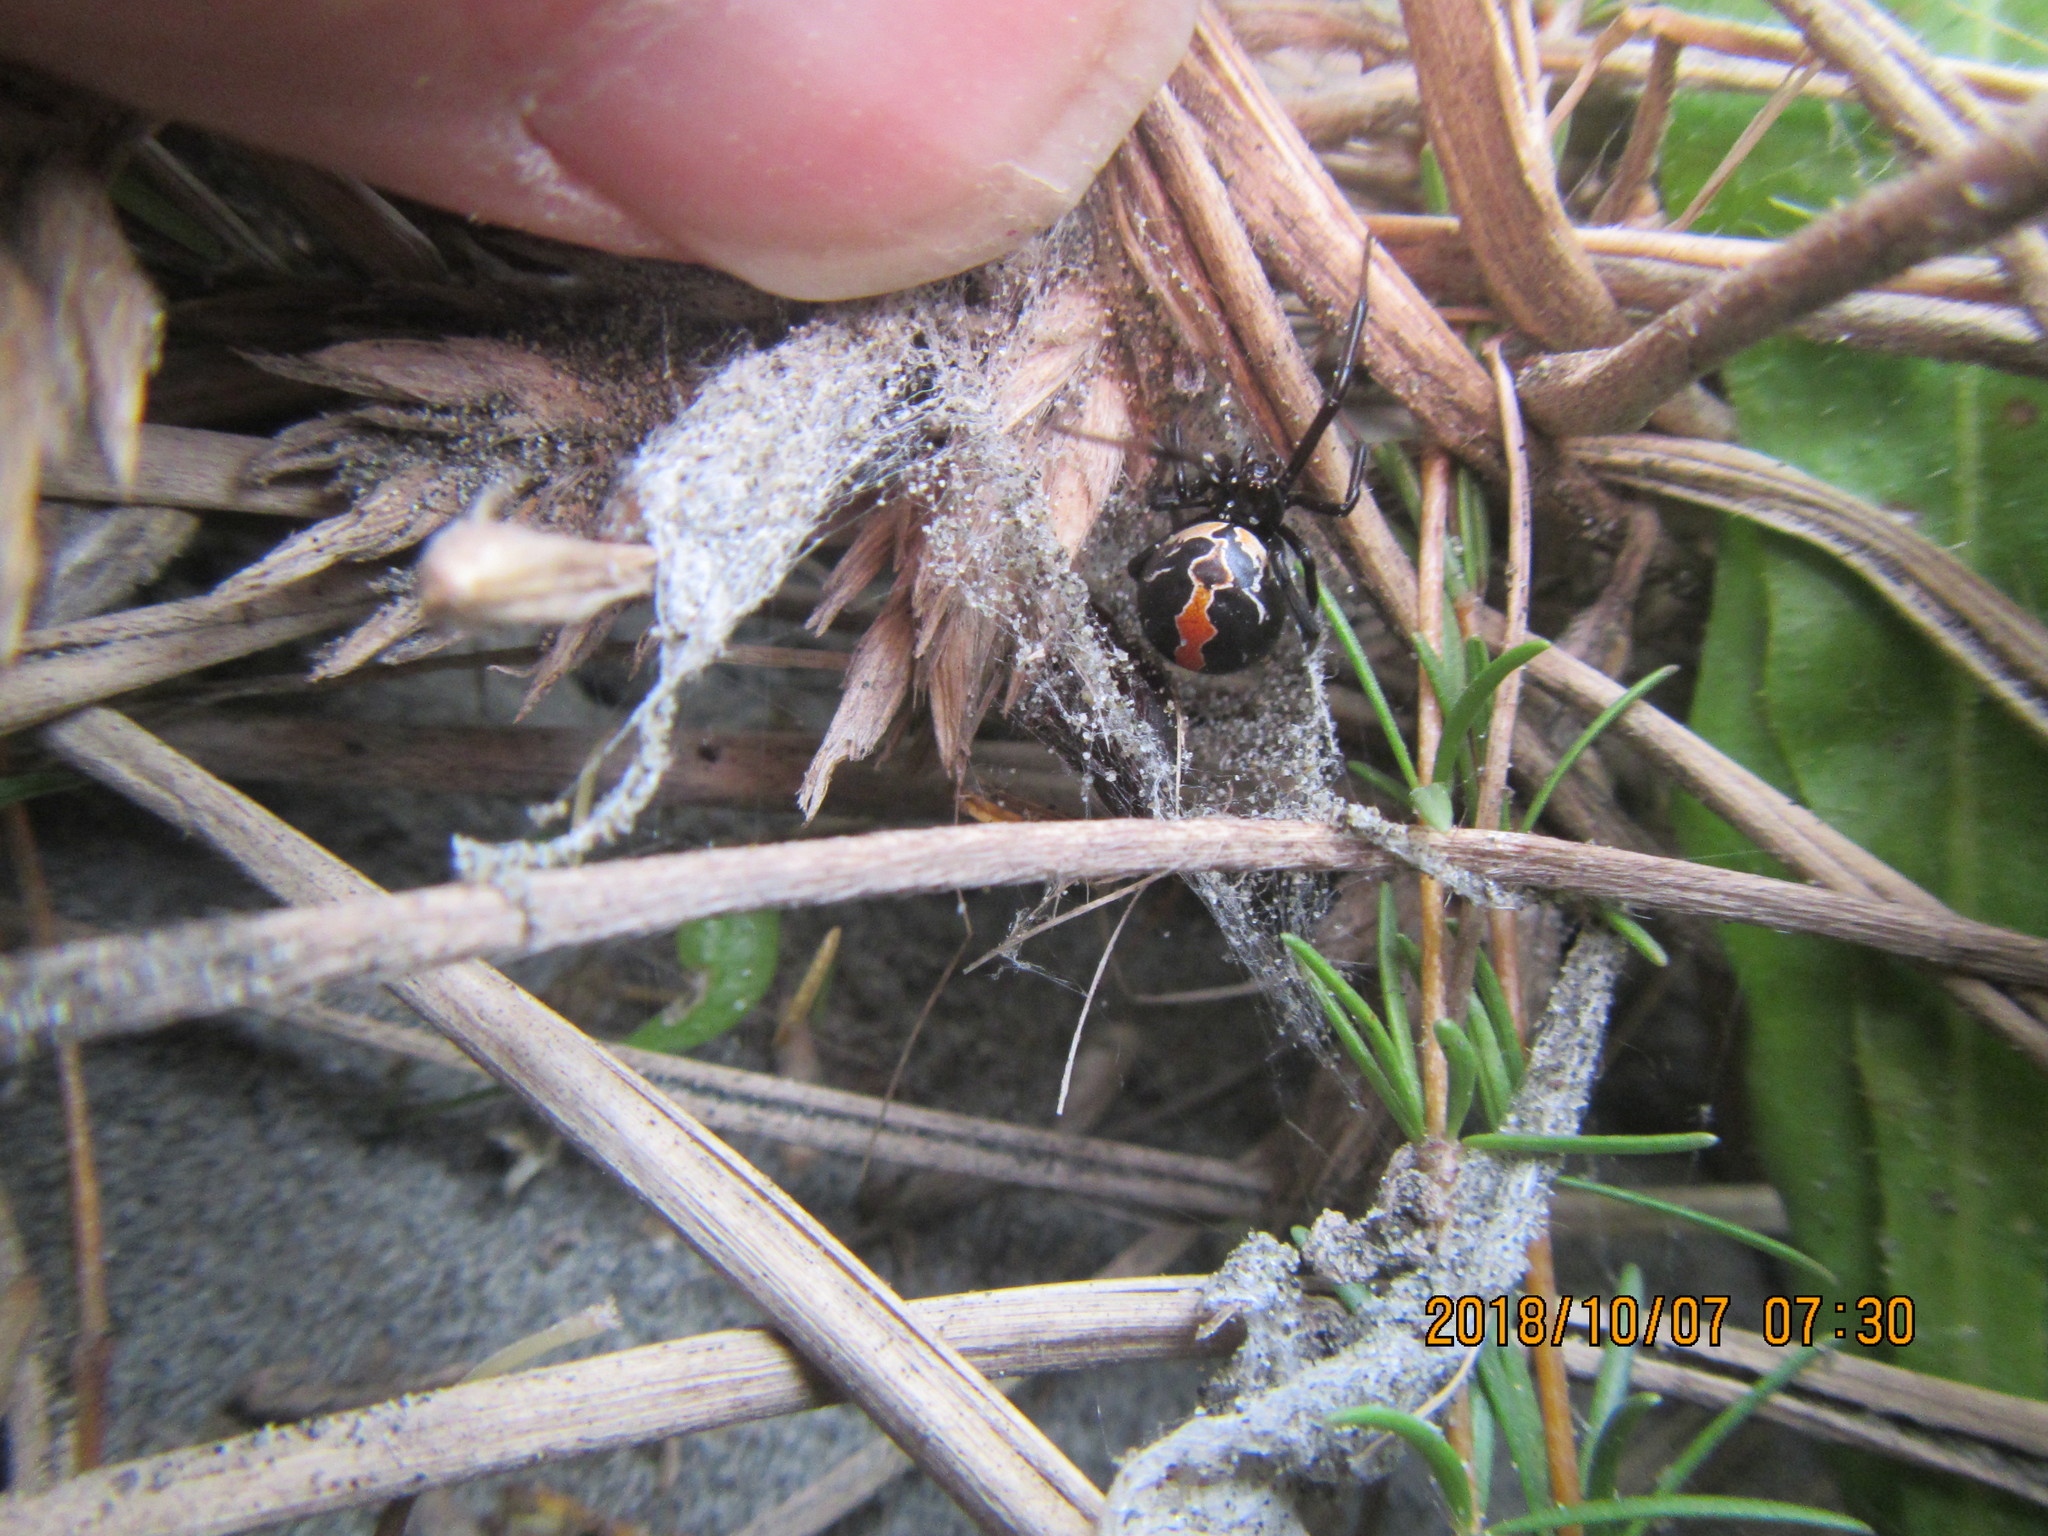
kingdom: Animalia
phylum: Arthropoda
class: Arachnida
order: Araneae
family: Theridiidae
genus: Latrodectus
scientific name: Latrodectus katipo
